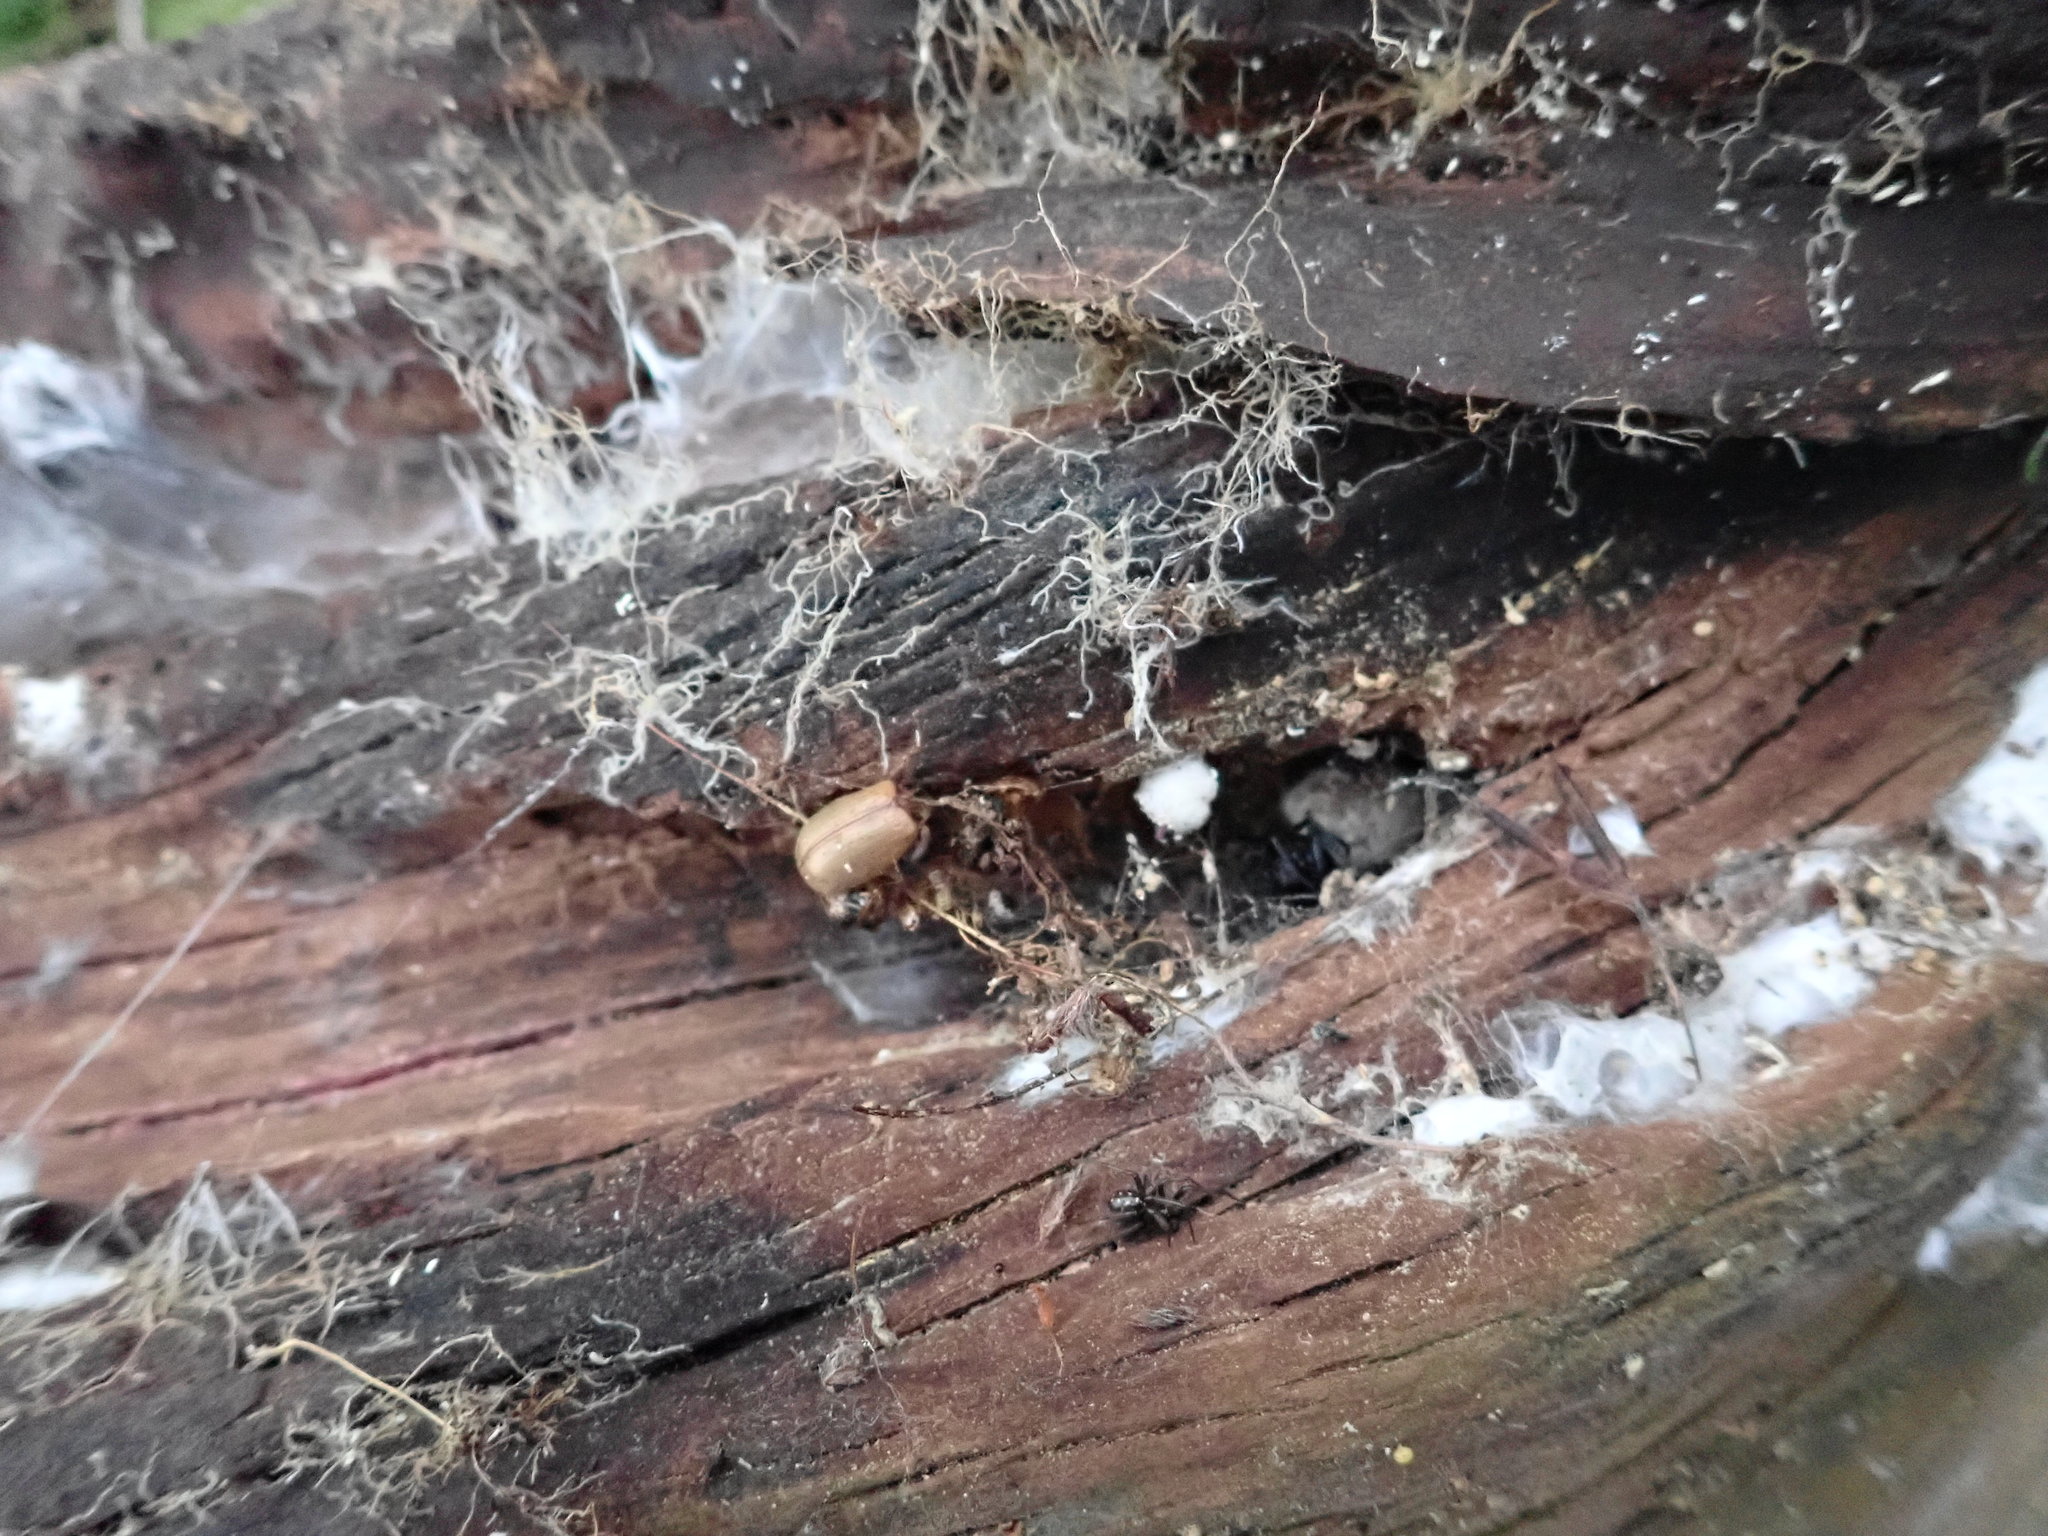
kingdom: Animalia
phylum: Arthropoda
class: Arachnida
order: Araneae
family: Theridiidae
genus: Steatoda
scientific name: Steatoda capensis
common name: Cobweb weaver
